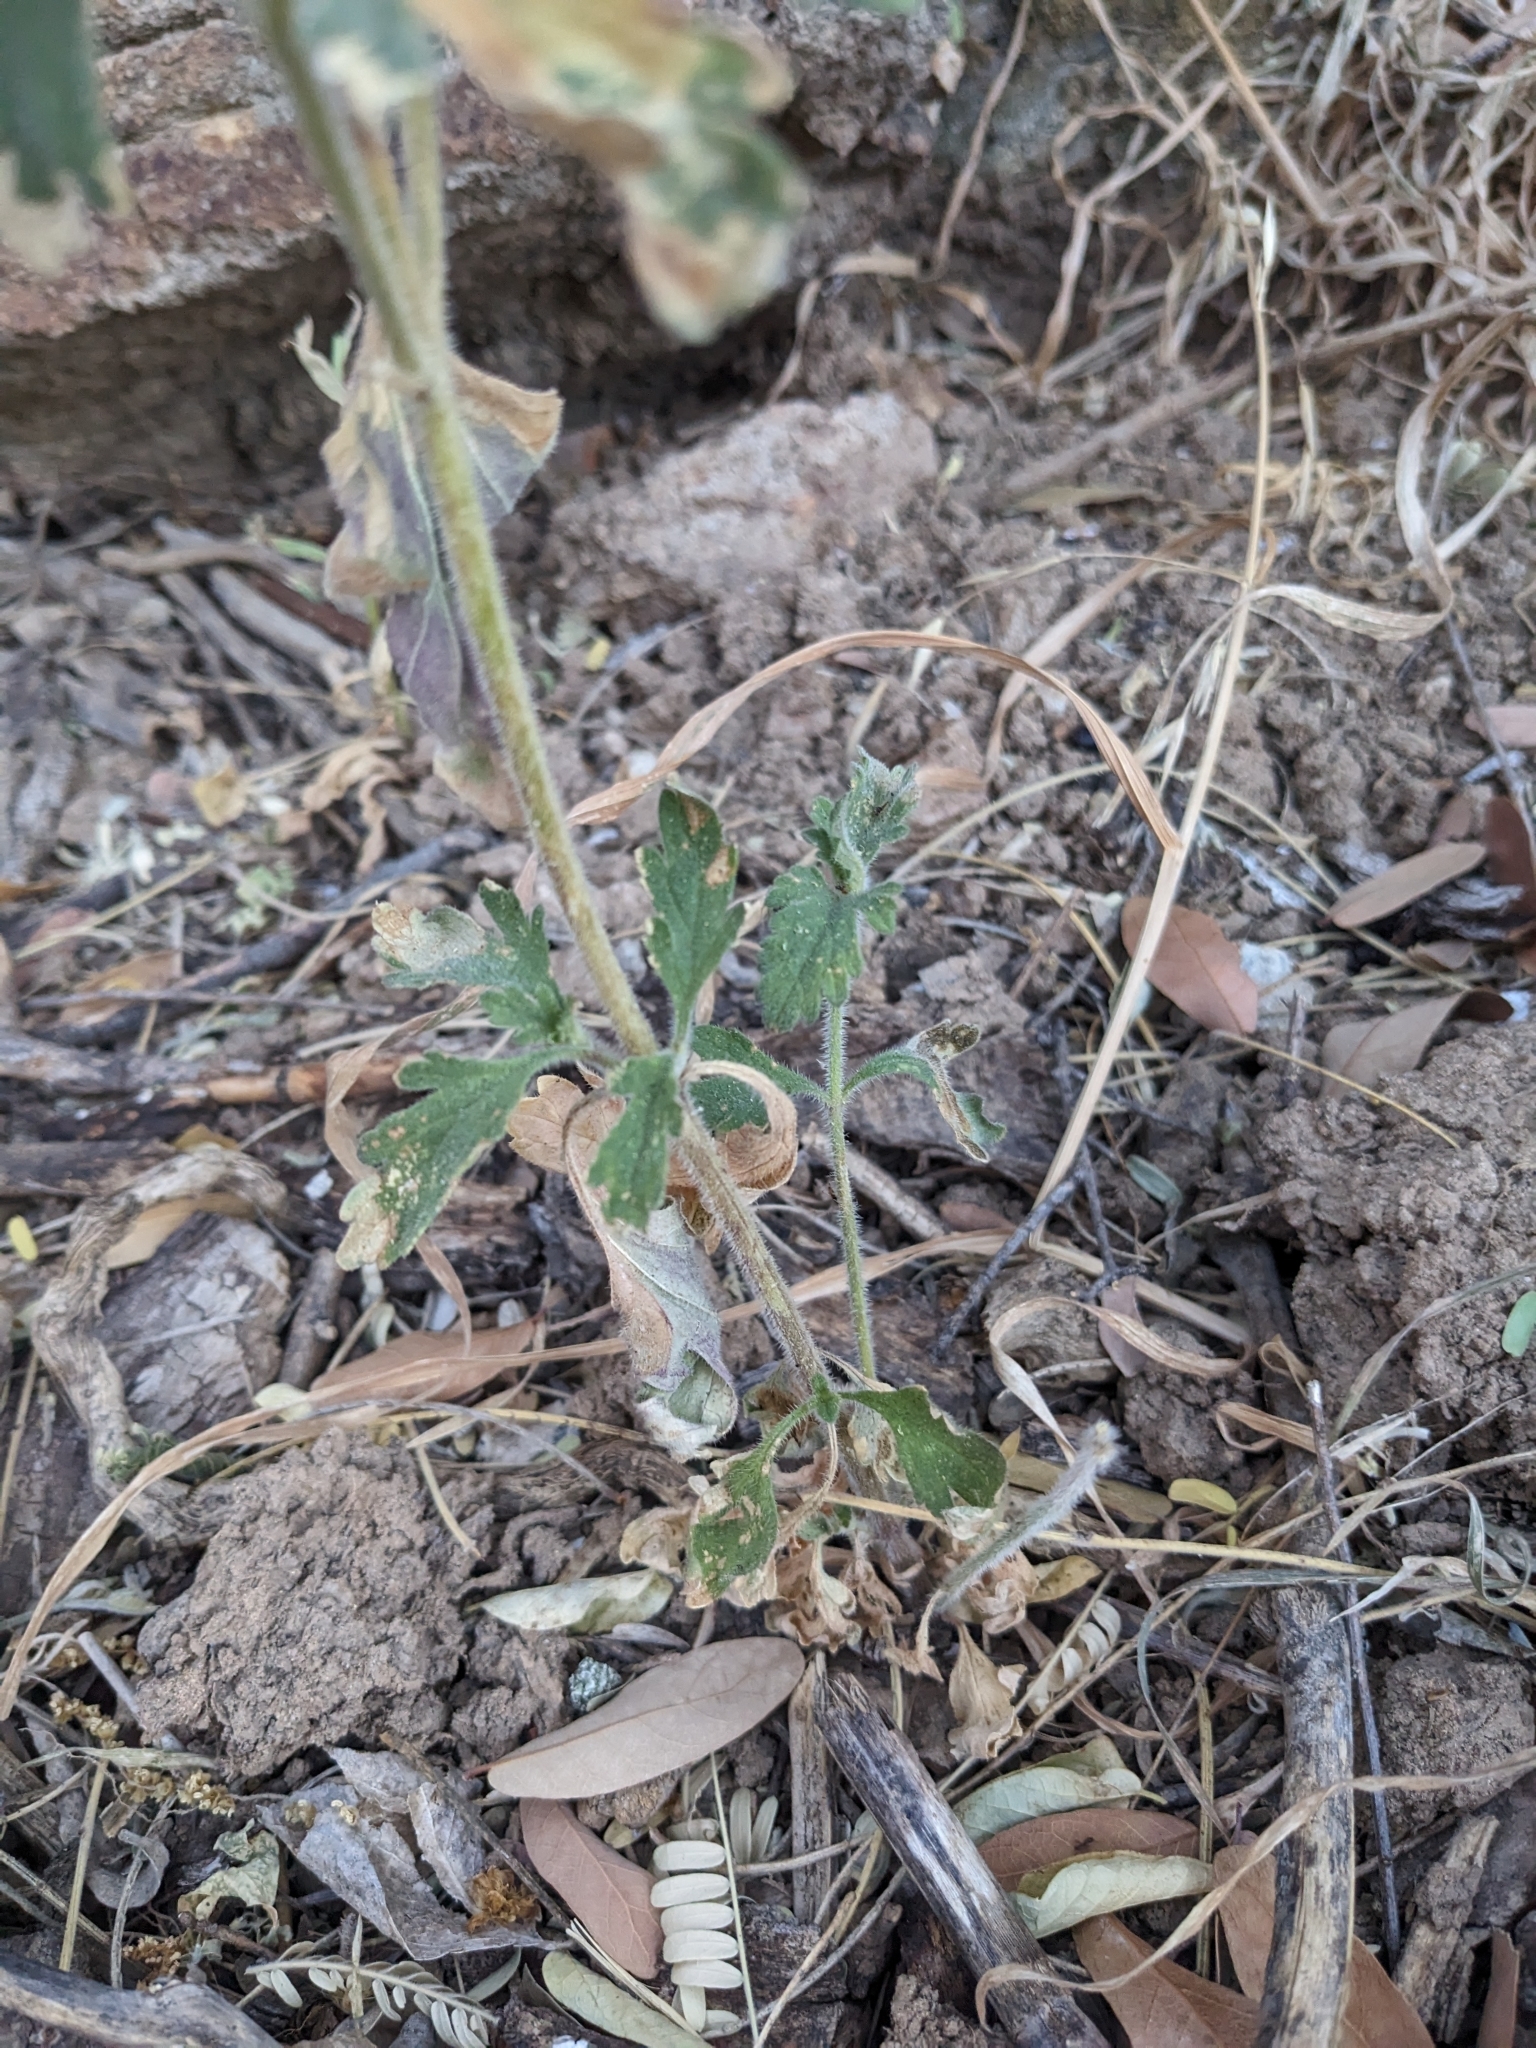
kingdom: Plantae
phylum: Tracheophyta
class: Magnoliopsida
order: Lamiales
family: Verbenaceae
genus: Verbena
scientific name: Verbena gooddingii
